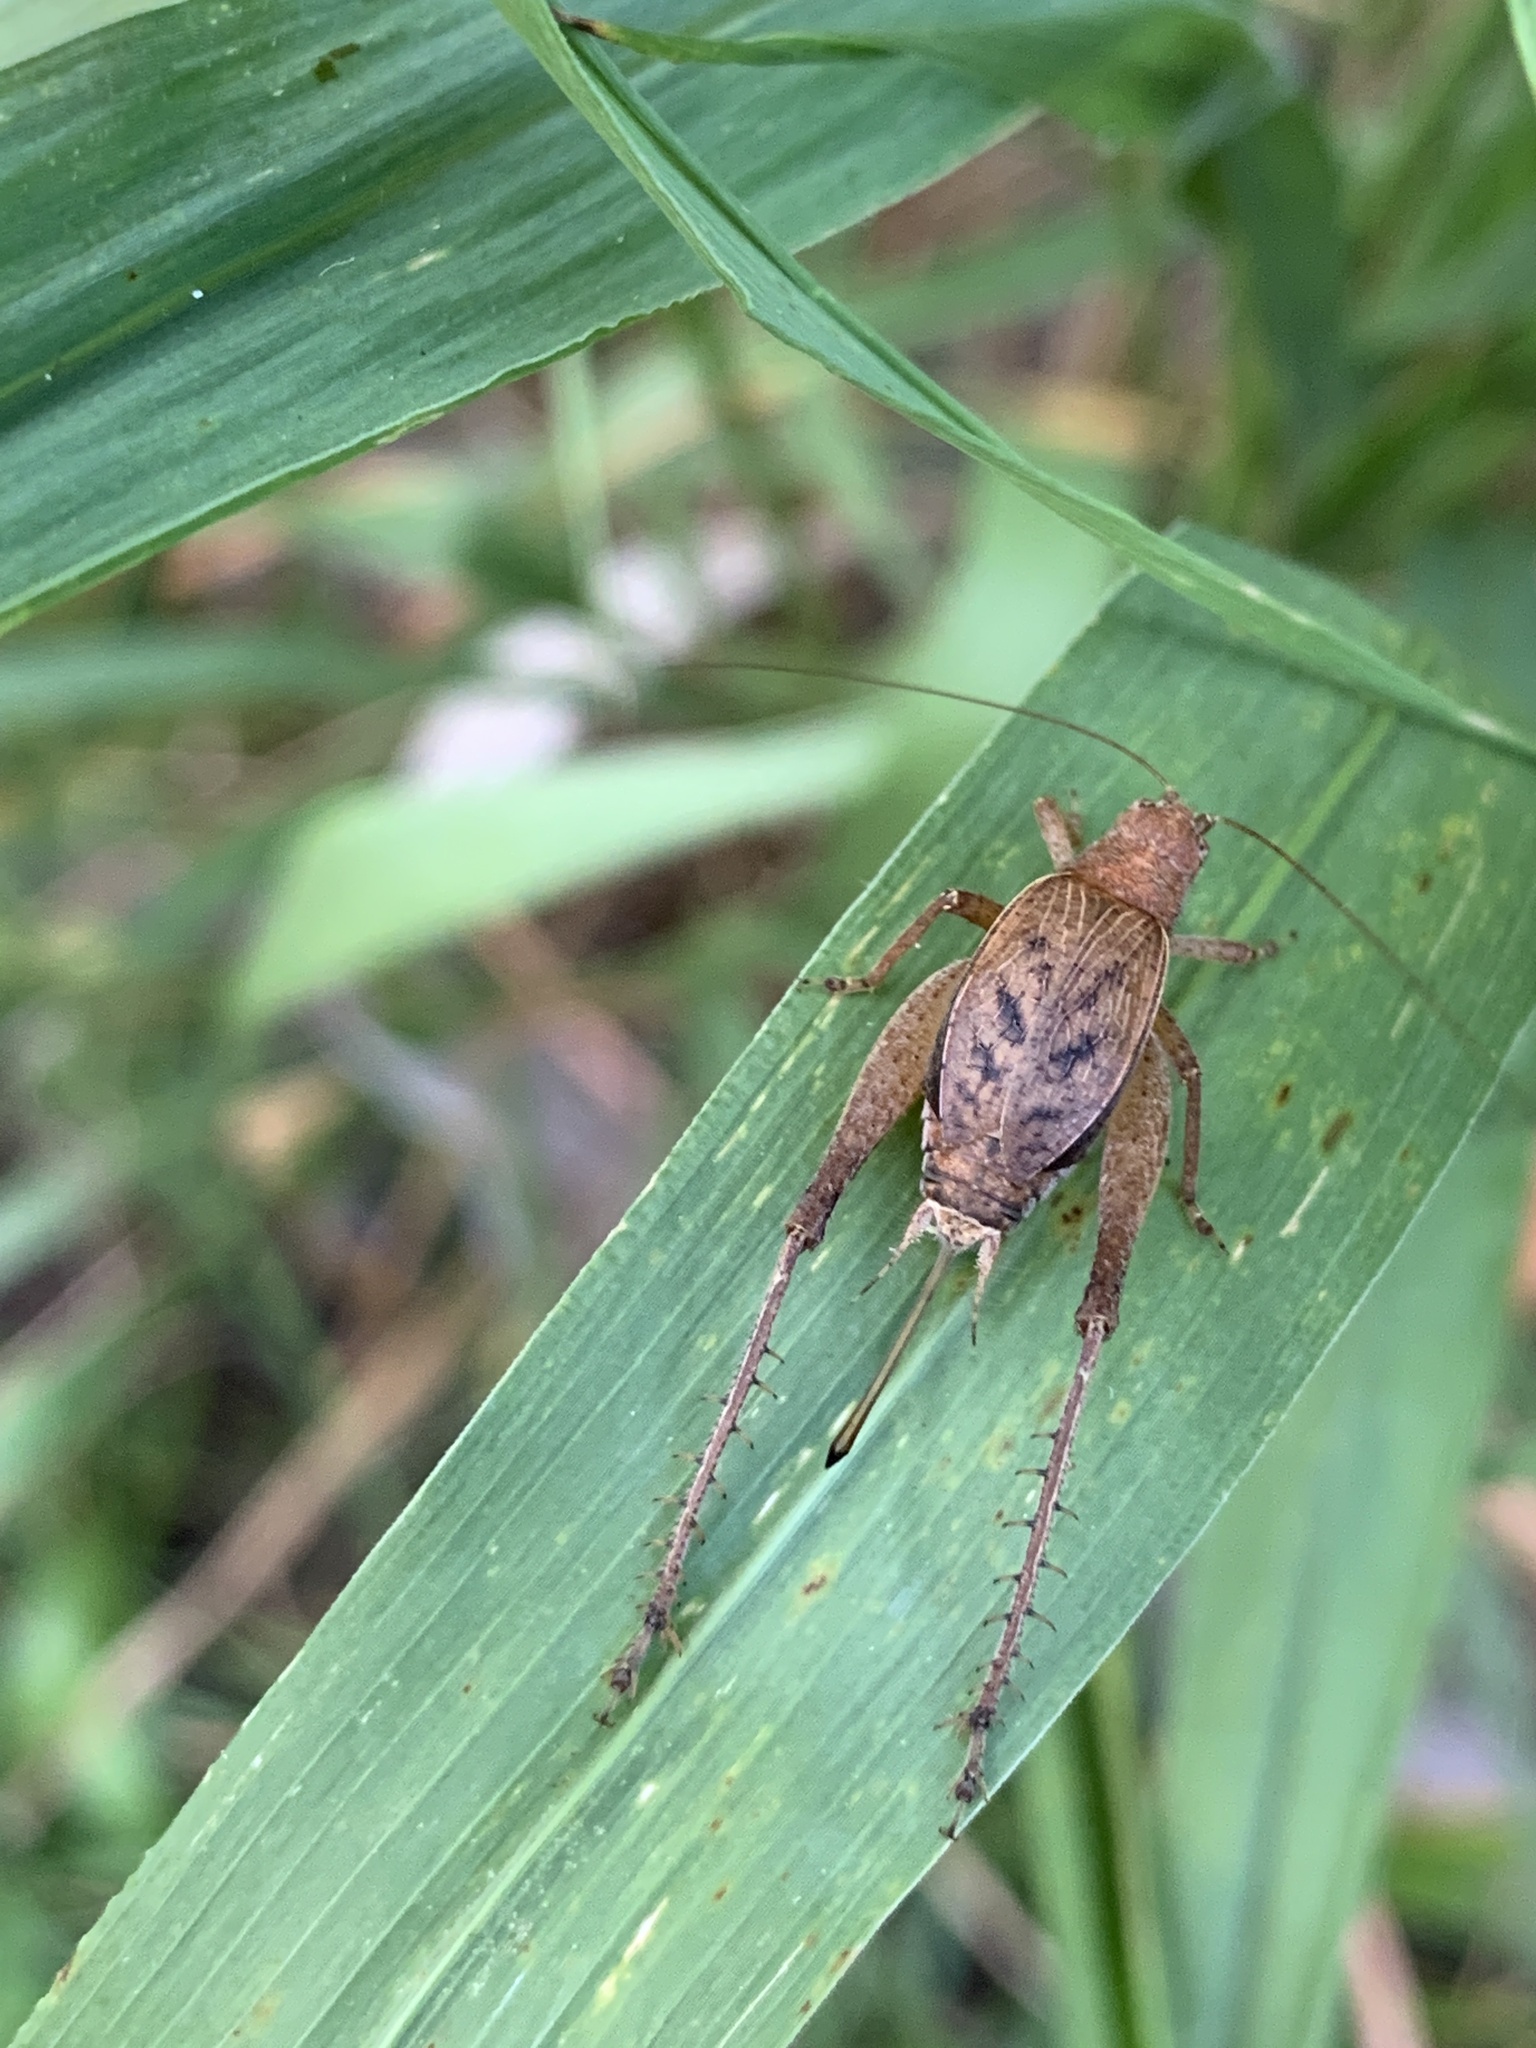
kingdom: Animalia
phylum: Arthropoda
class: Insecta
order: Orthoptera
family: Gryllidae
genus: Hapithus
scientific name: Hapithus agitator
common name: Restless bush cricket
